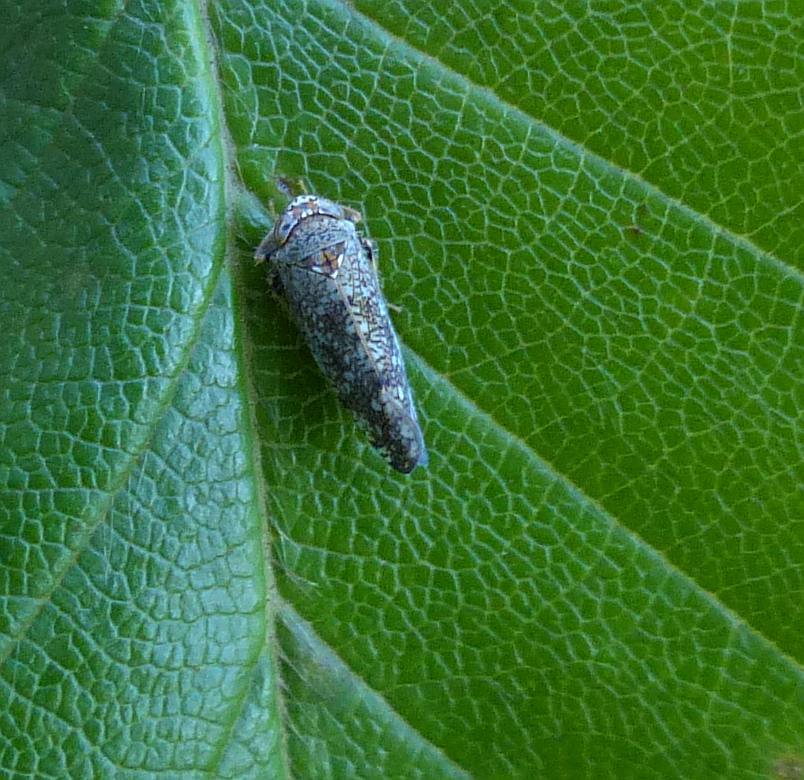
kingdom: Animalia
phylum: Arthropoda
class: Insecta
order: Hemiptera
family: Cicadellidae
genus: Orientus
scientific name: Orientus ishidae
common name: Japanese leafhopper
